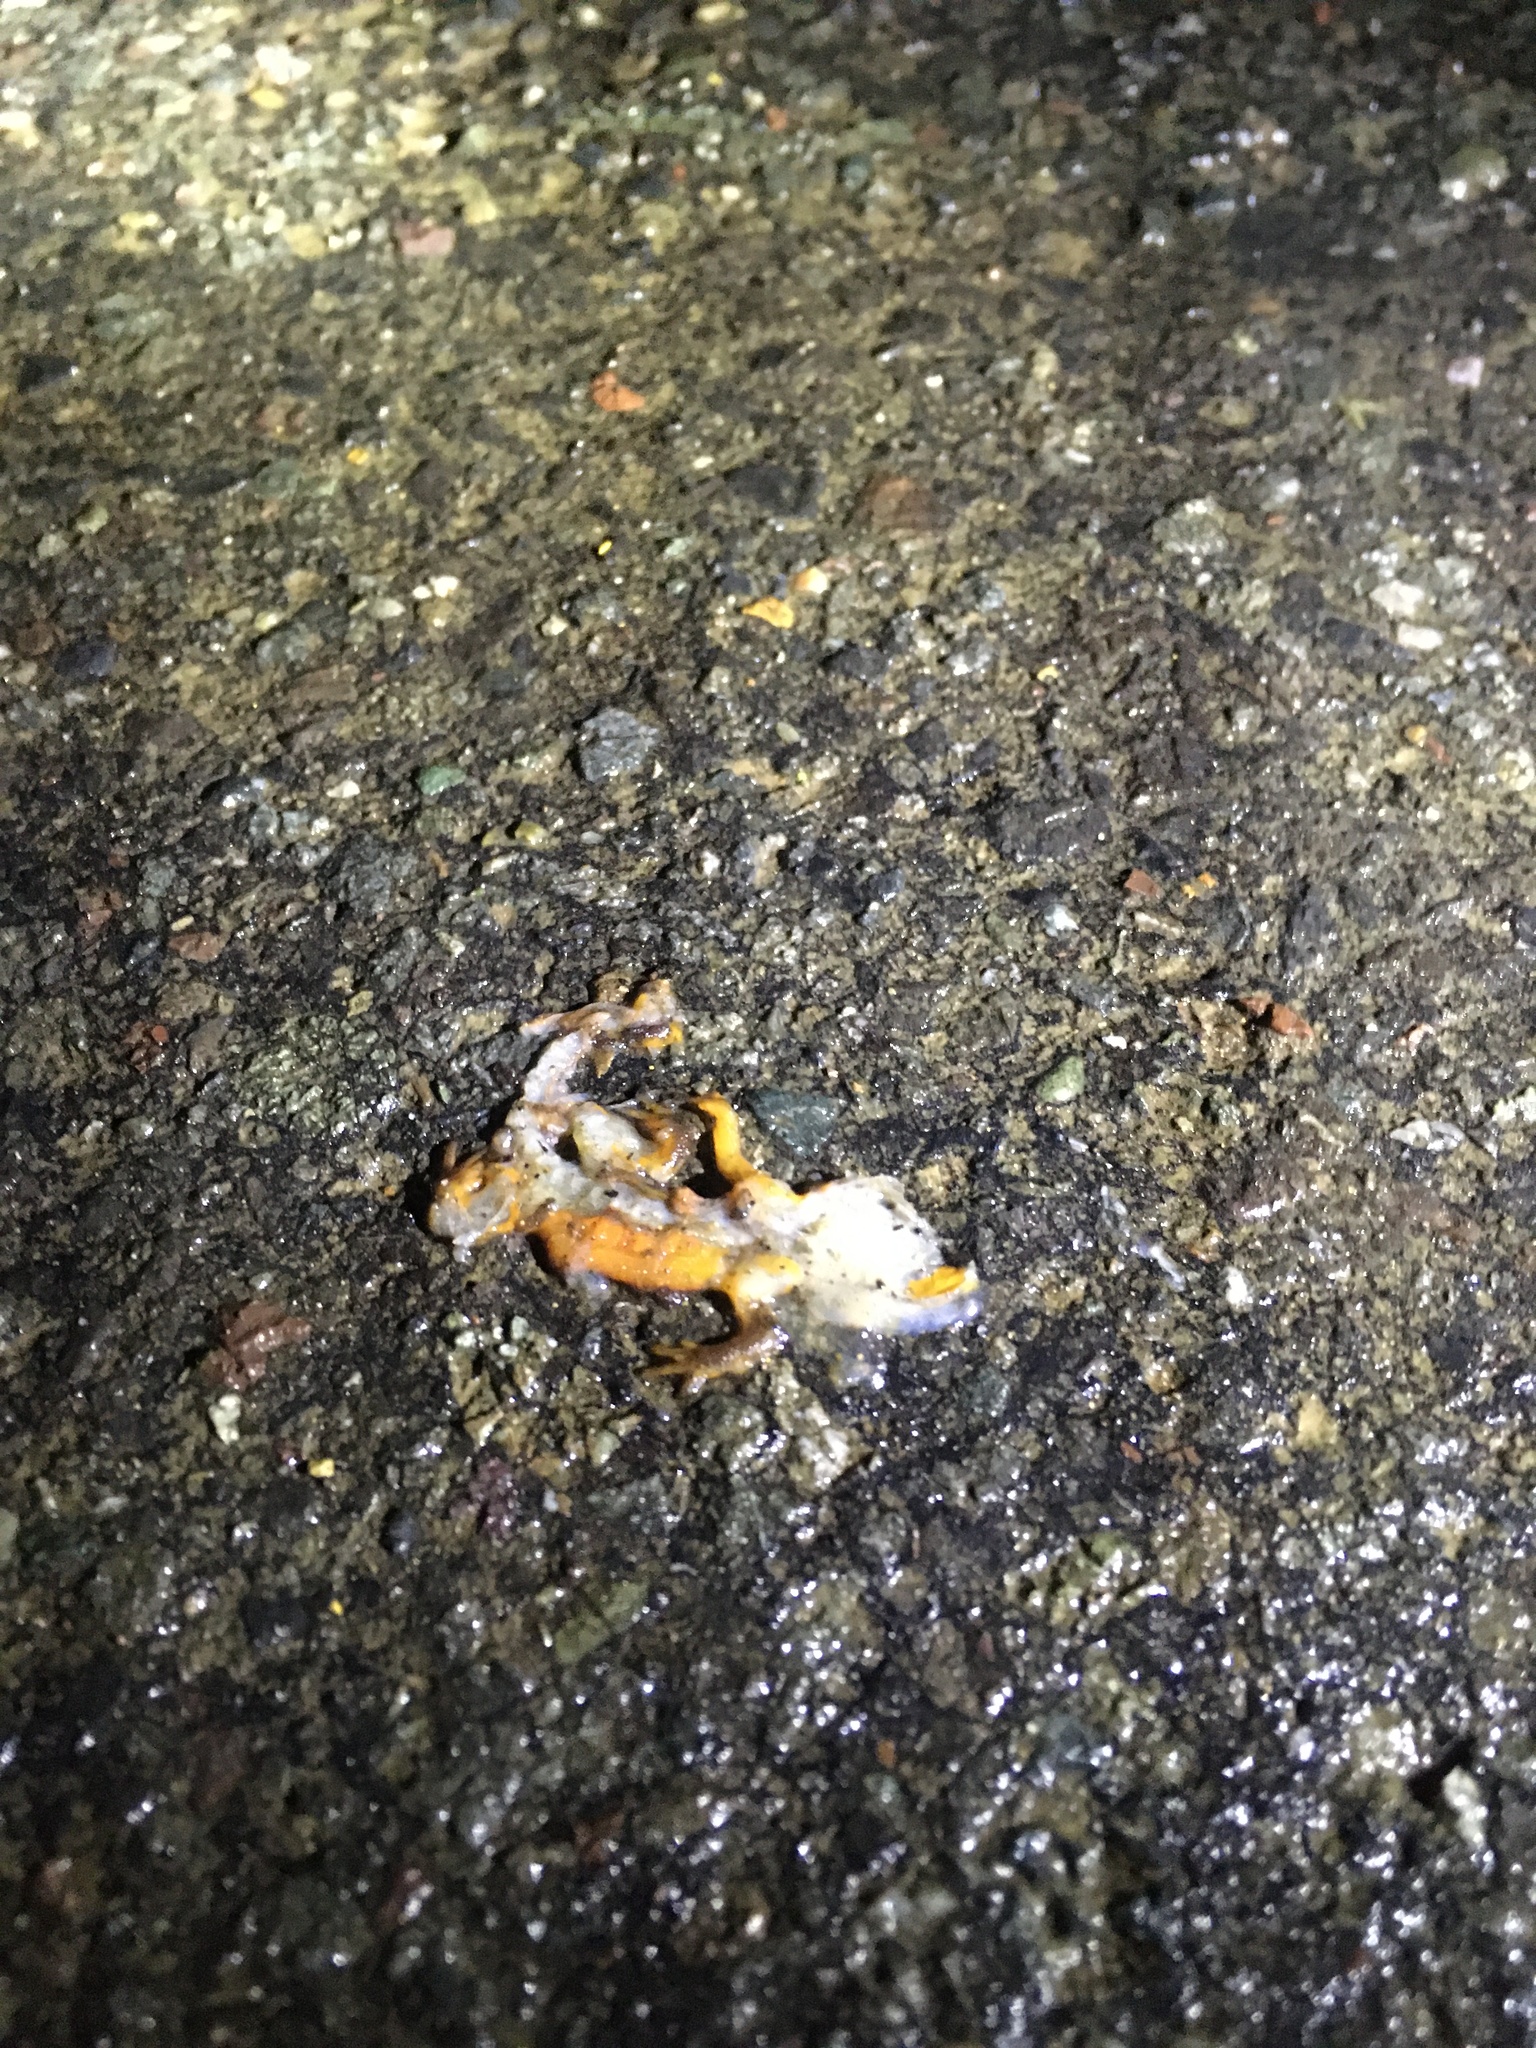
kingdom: Animalia
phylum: Chordata
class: Amphibia
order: Caudata
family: Salamandridae
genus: Taricha
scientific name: Taricha
